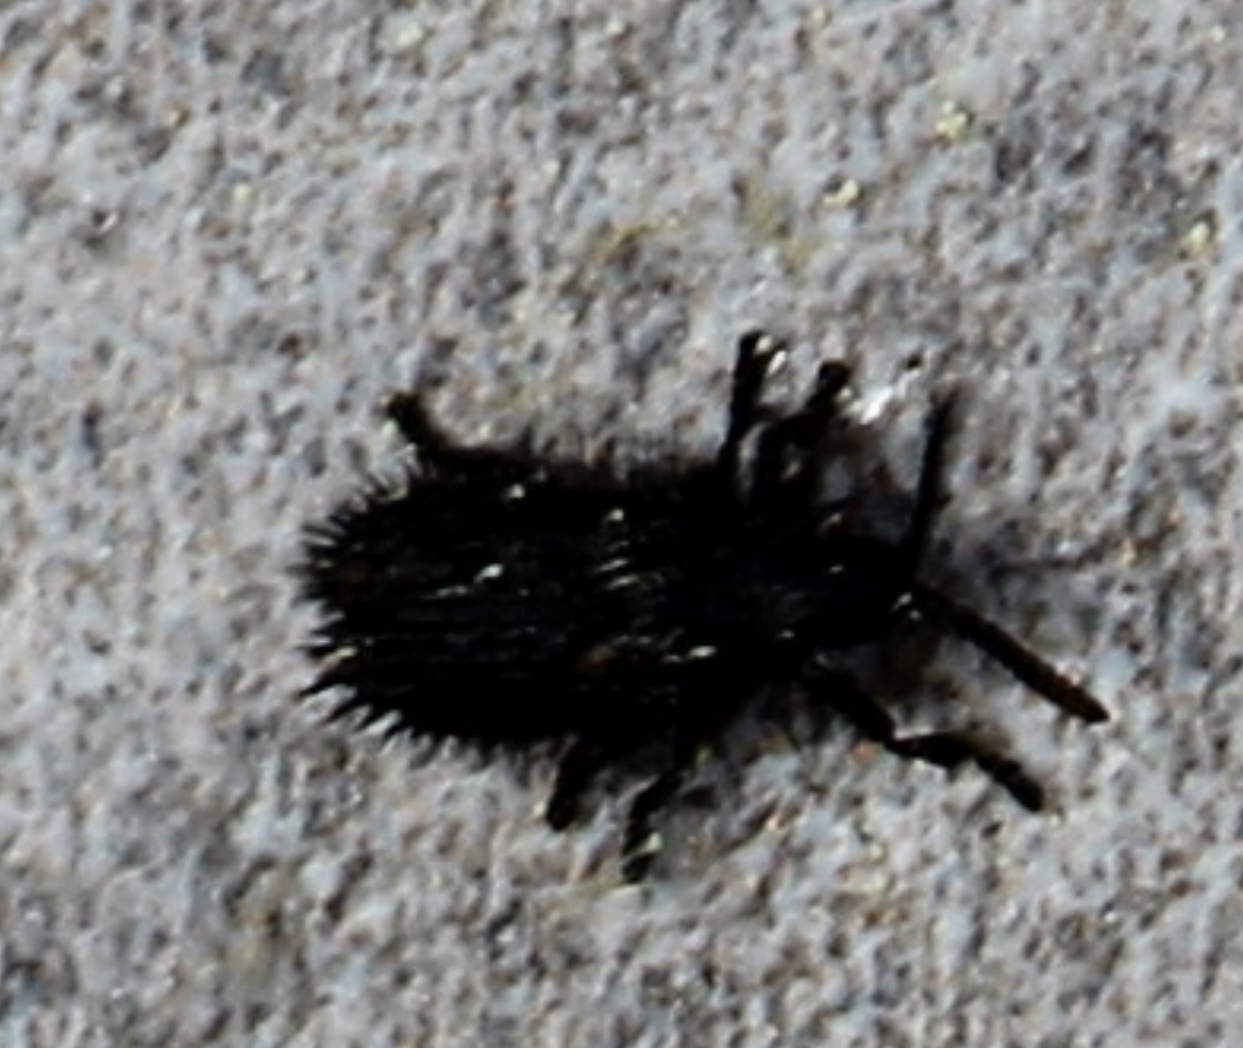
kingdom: Animalia
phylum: Arthropoda
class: Insecta
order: Coleoptera
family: Chrysomelidae
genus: Hispa
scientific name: Hispa atra
